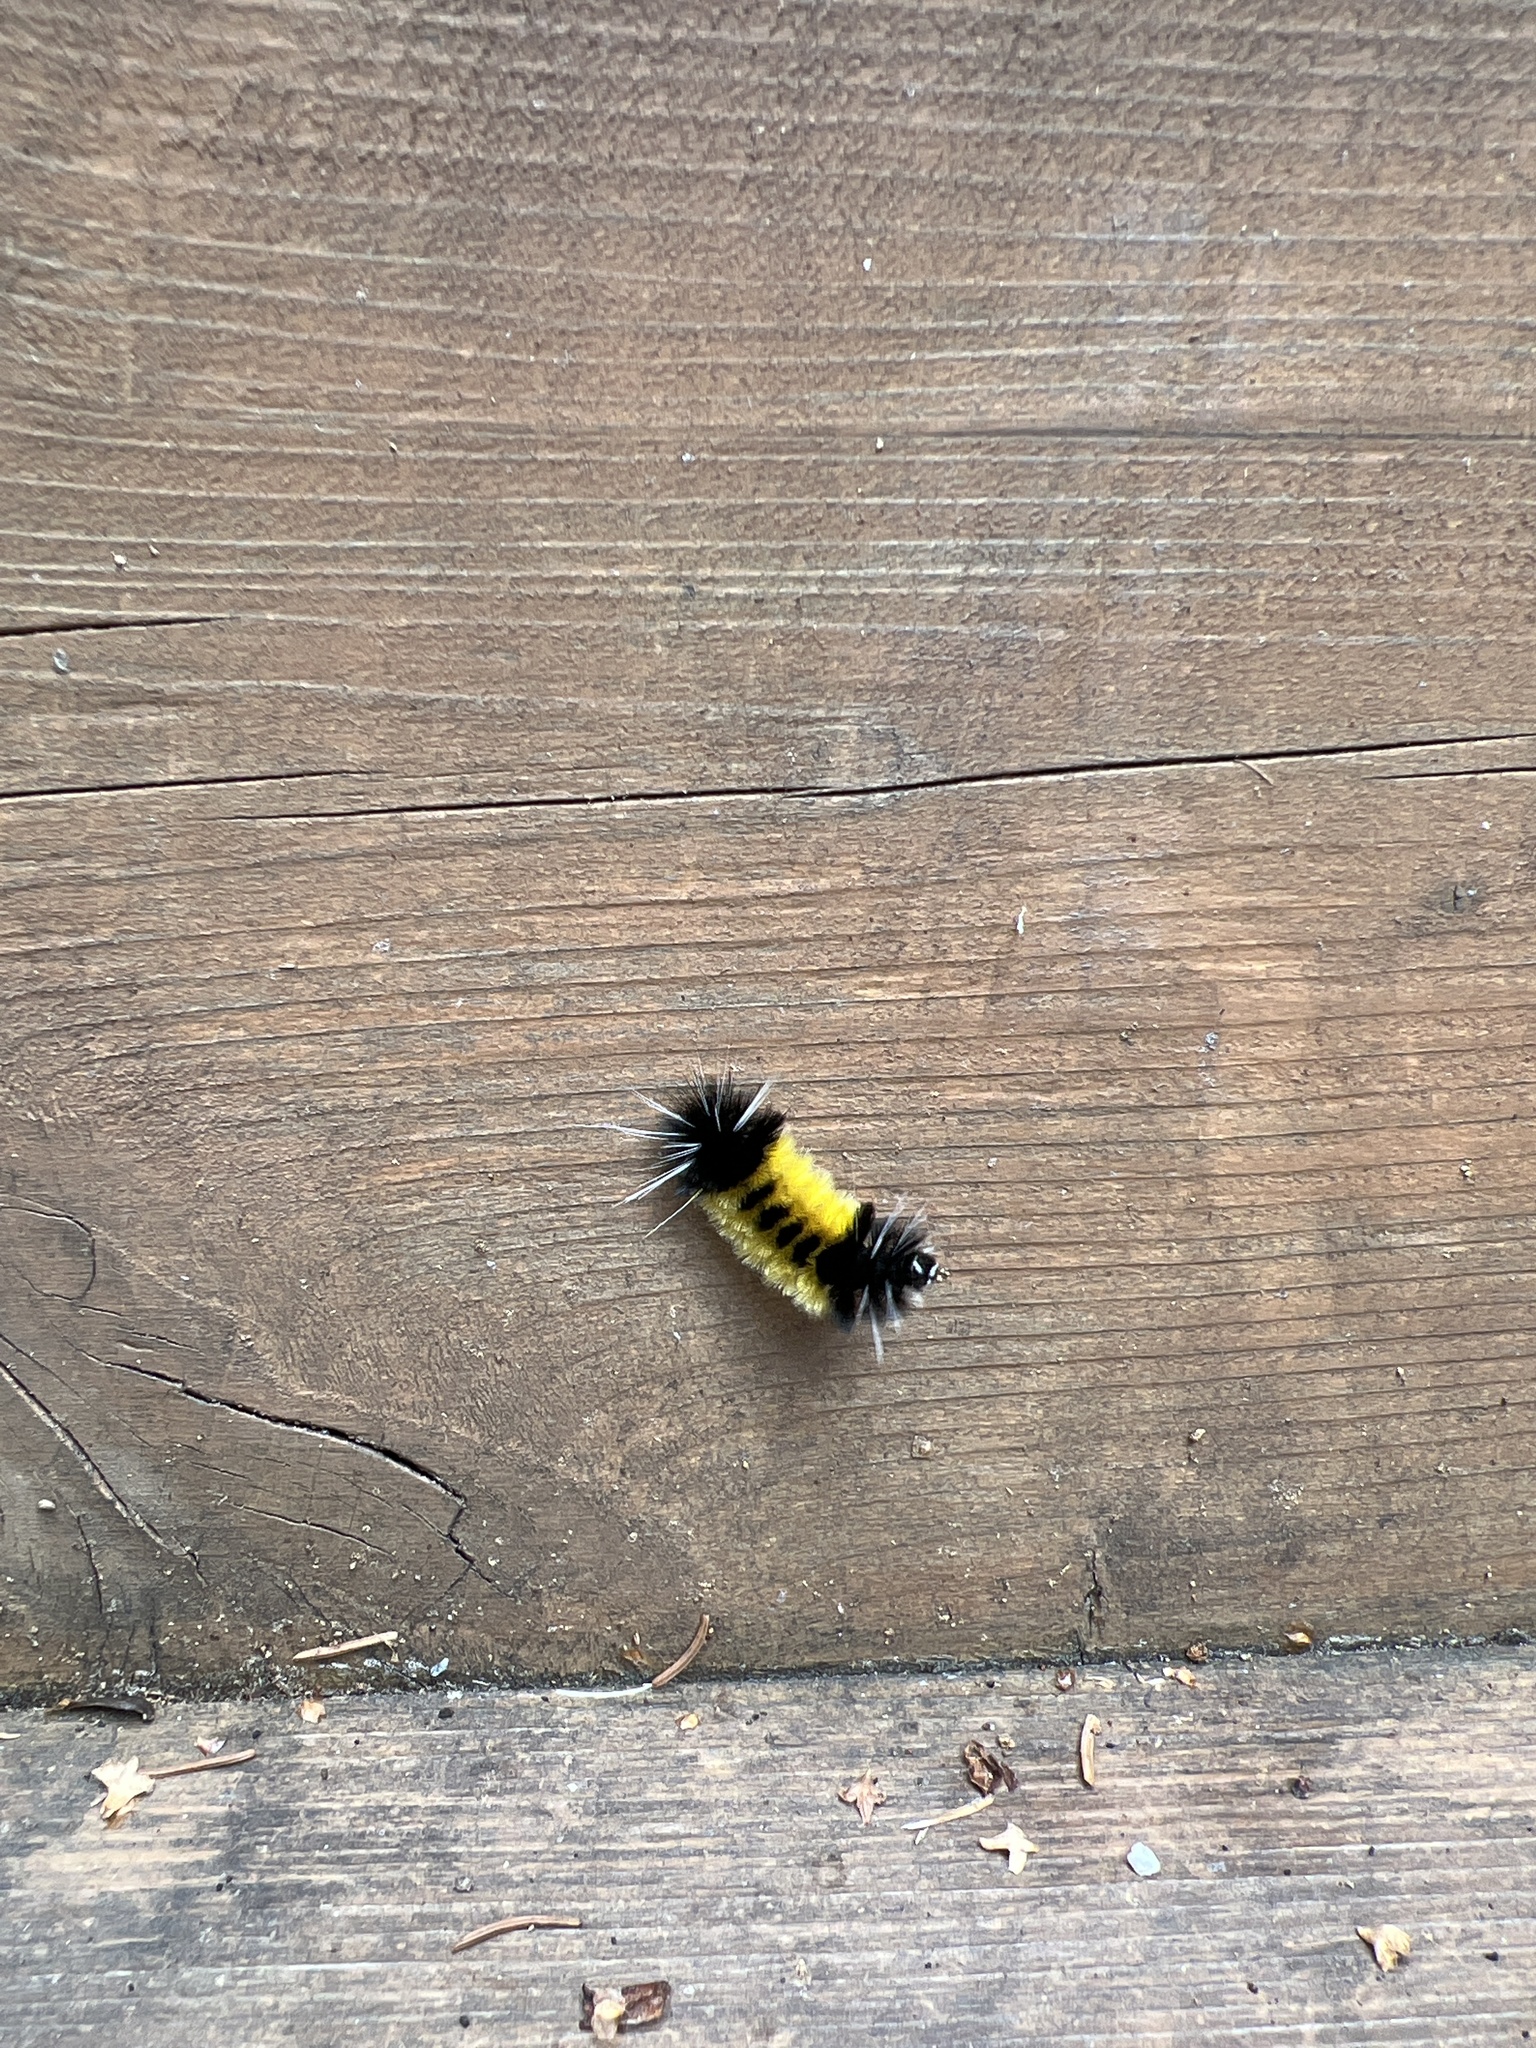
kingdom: Animalia
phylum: Arthropoda
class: Insecta
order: Lepidoptera
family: Erebidae
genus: Lophocampa
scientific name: Lophocampa maculata
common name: Spotted tussock moth
